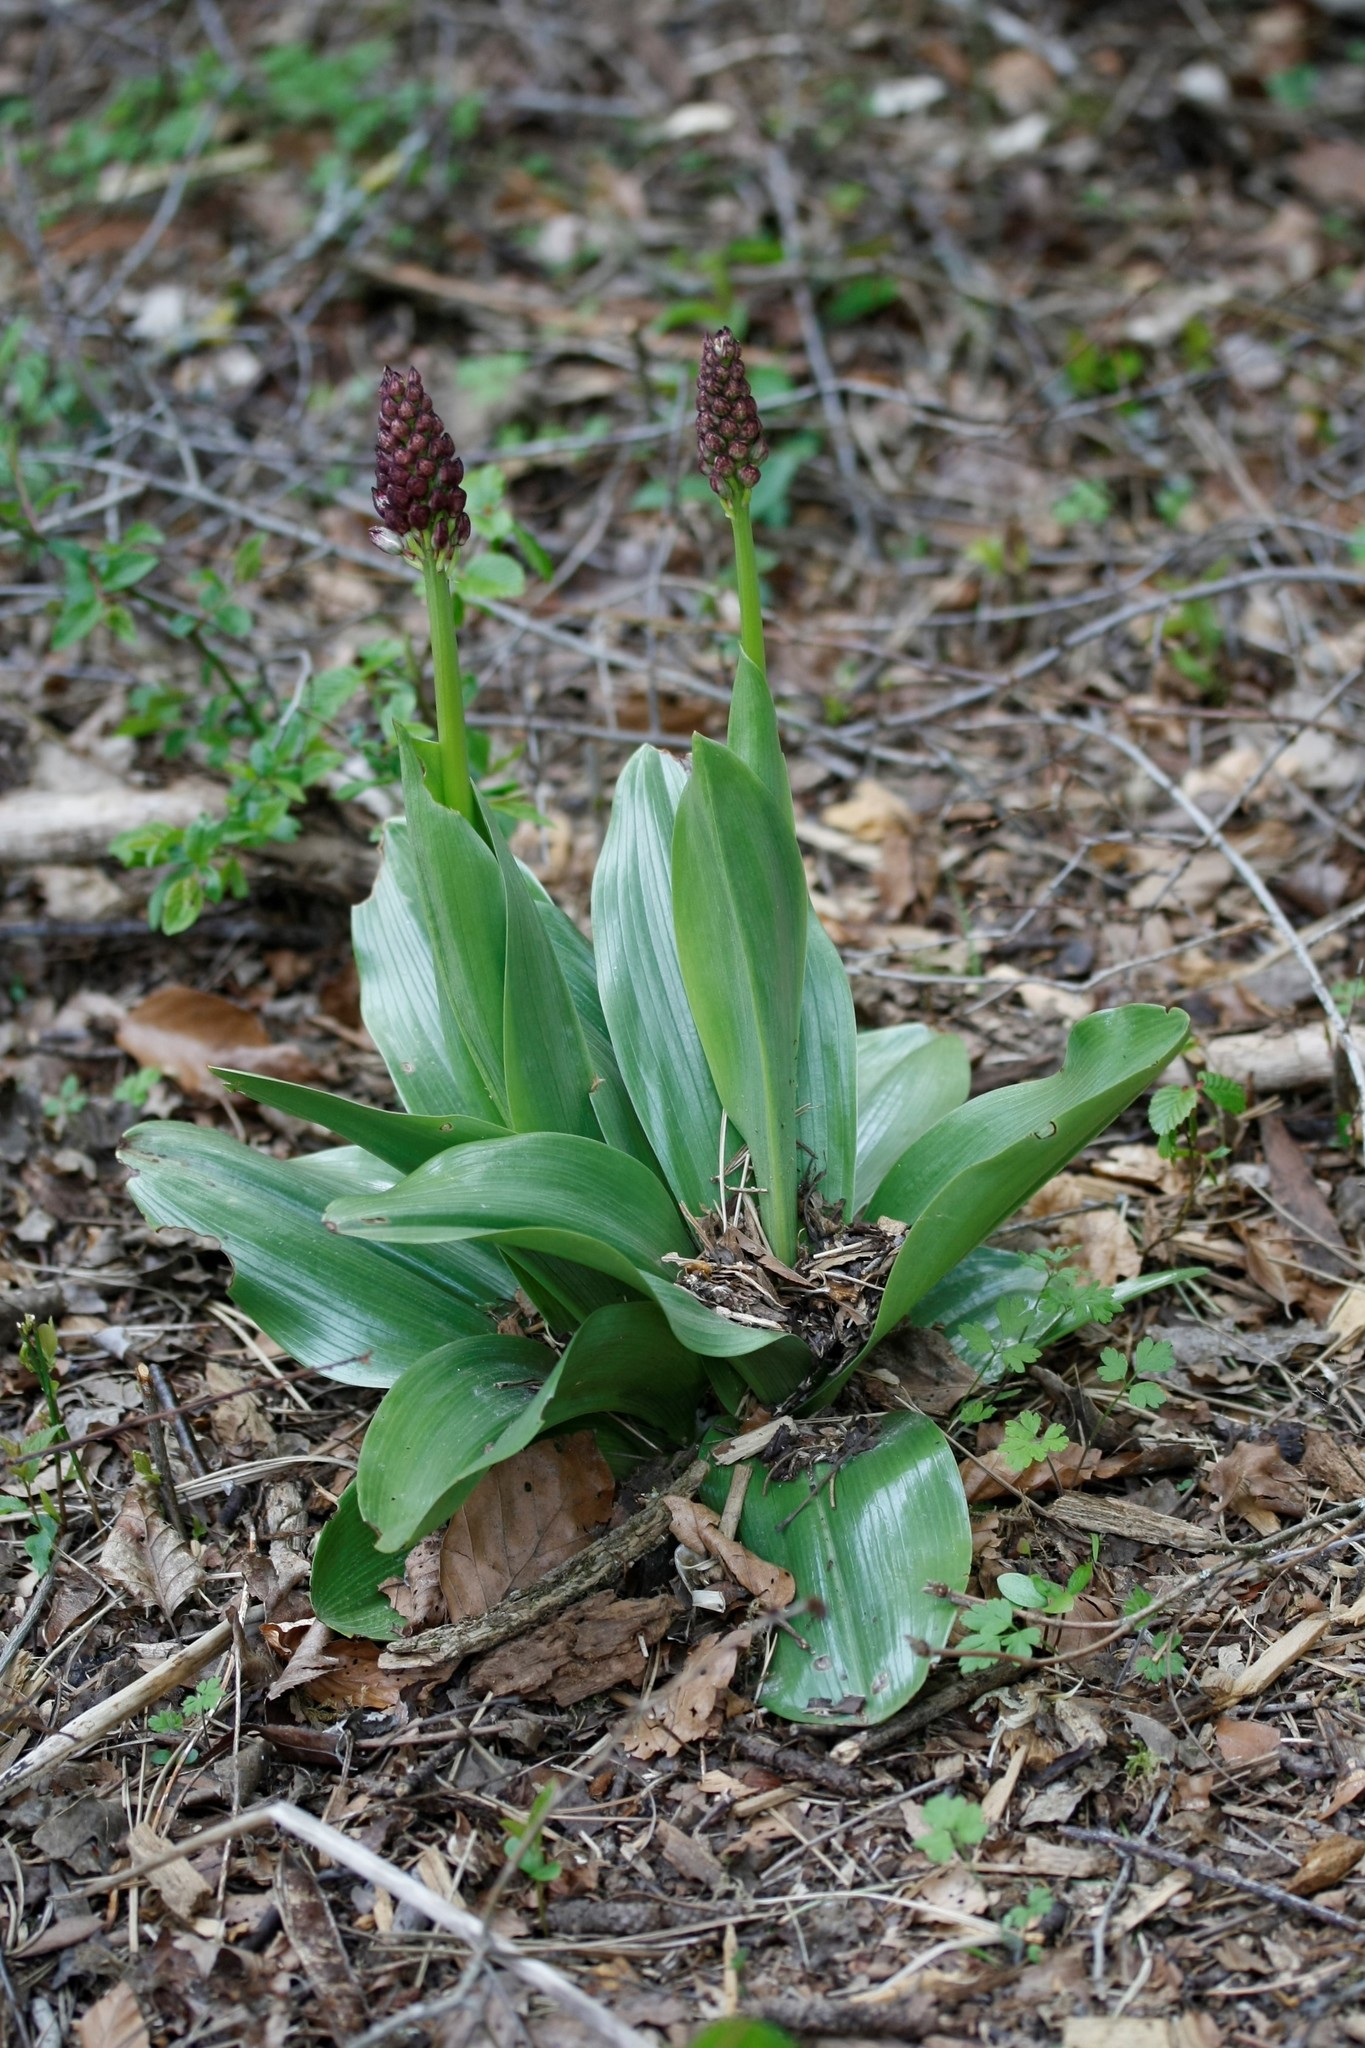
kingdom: Plantae
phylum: Tracheophyta
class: Liliopsida
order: Asparagales
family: Orchidaceae
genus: Orchis
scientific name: Orchis purpurea
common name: Lady orchid
